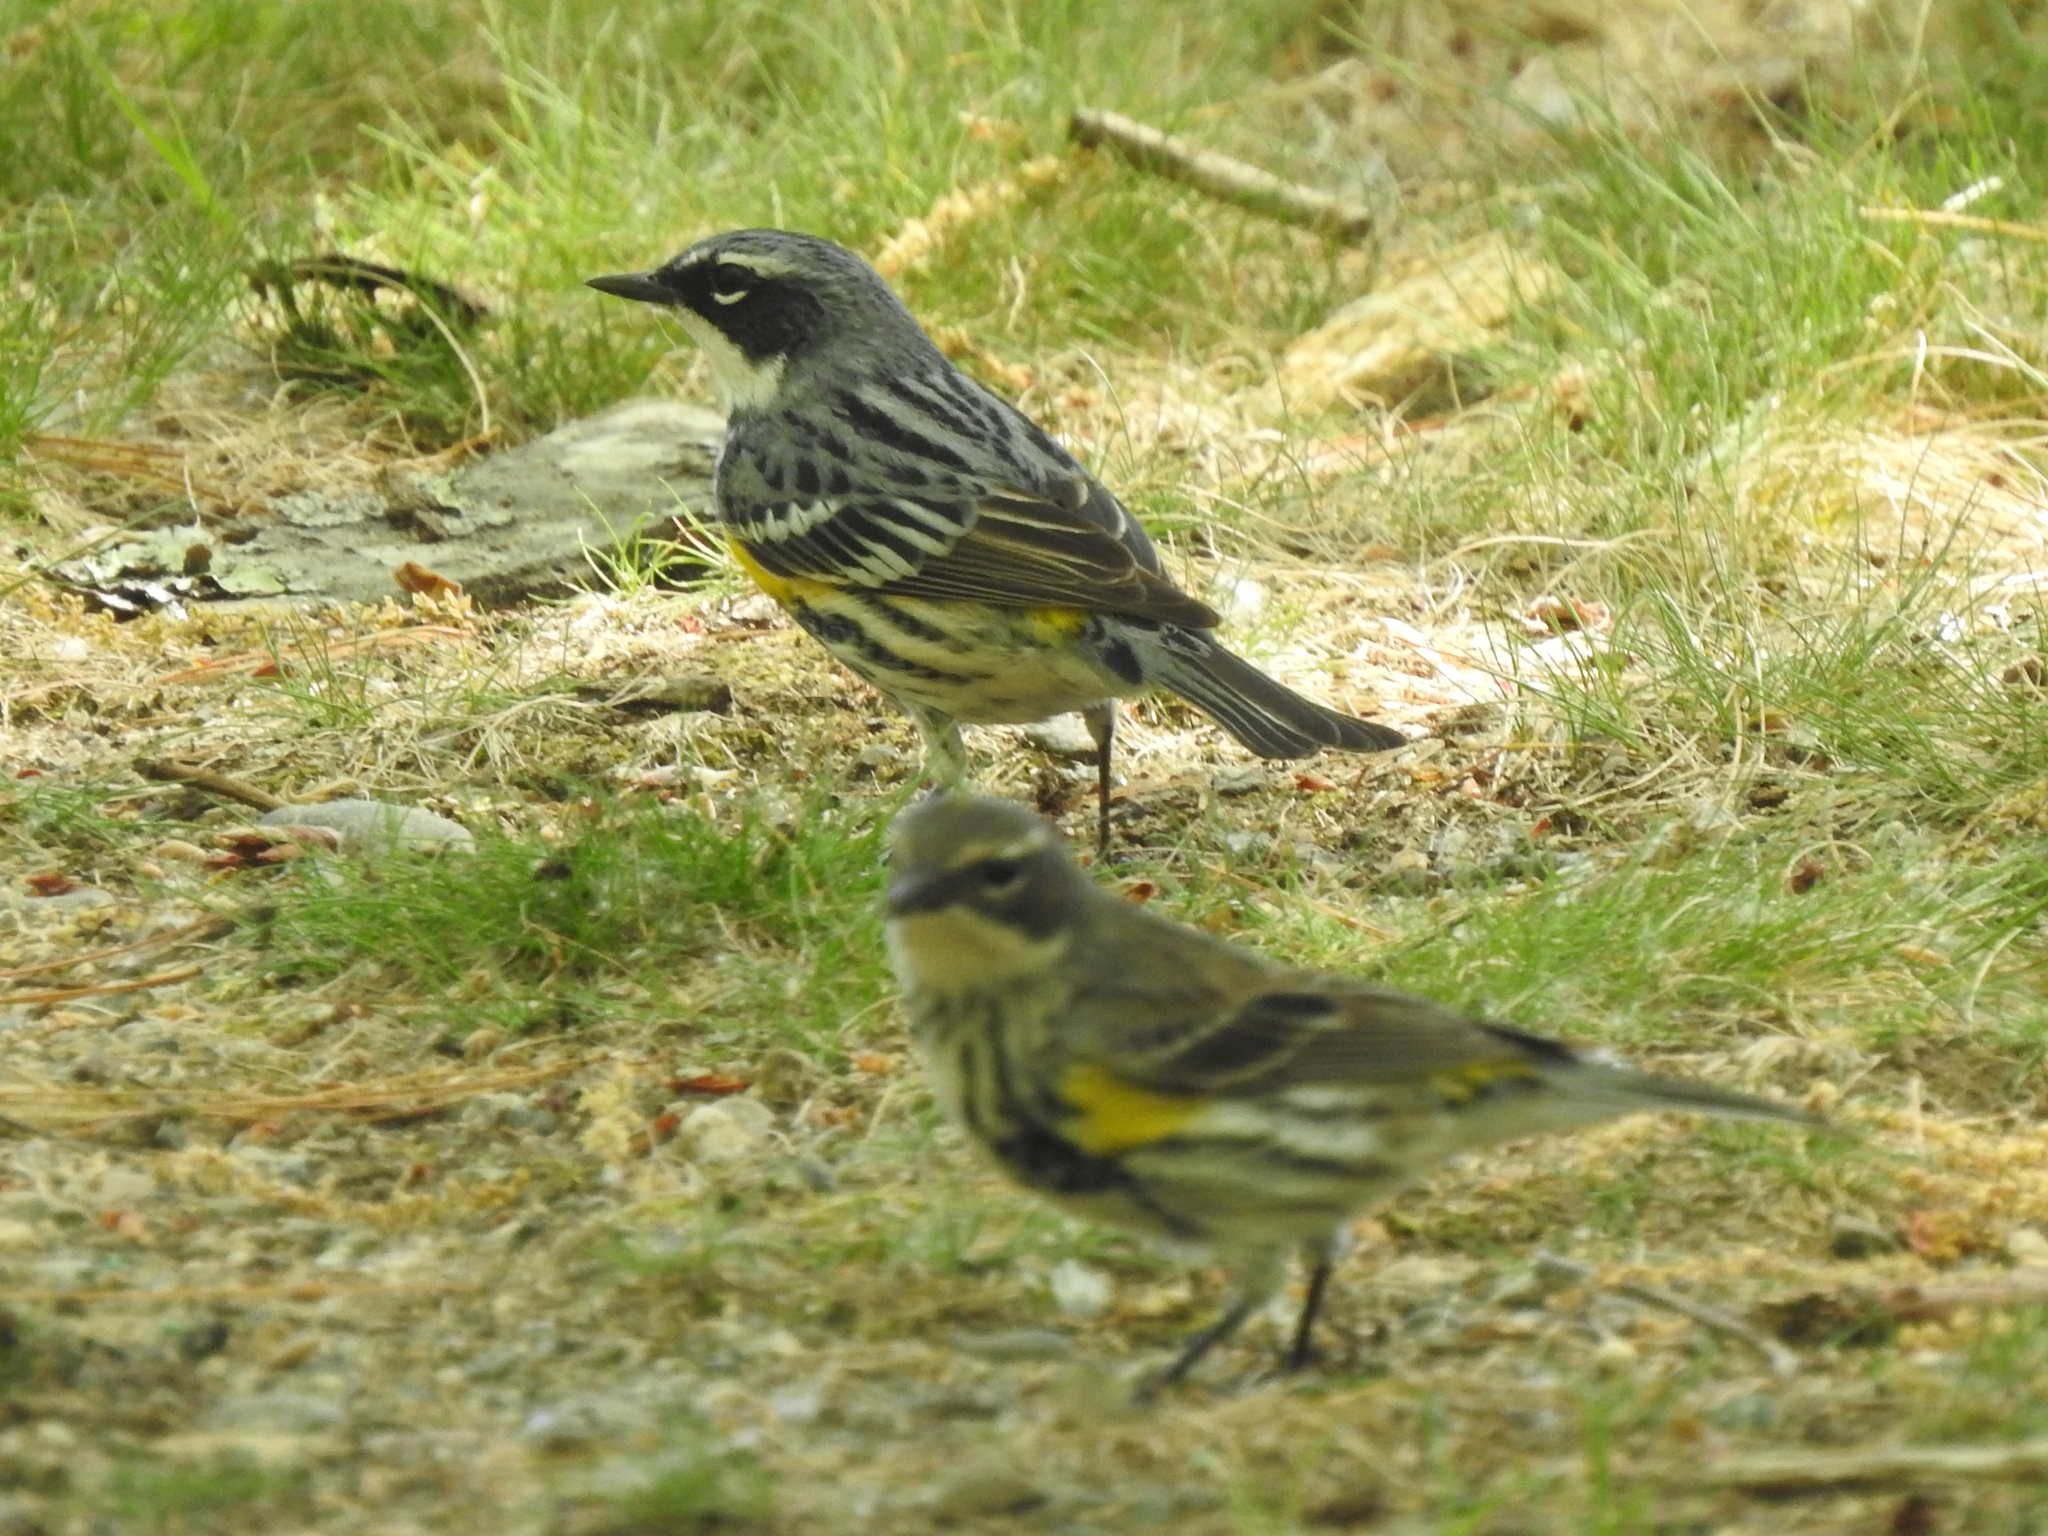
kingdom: Animalia
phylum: Chordata
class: Aves
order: Passeriformes
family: Parulidae
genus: Setophaga
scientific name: Setophaga coronata
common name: Myrtle warbler
